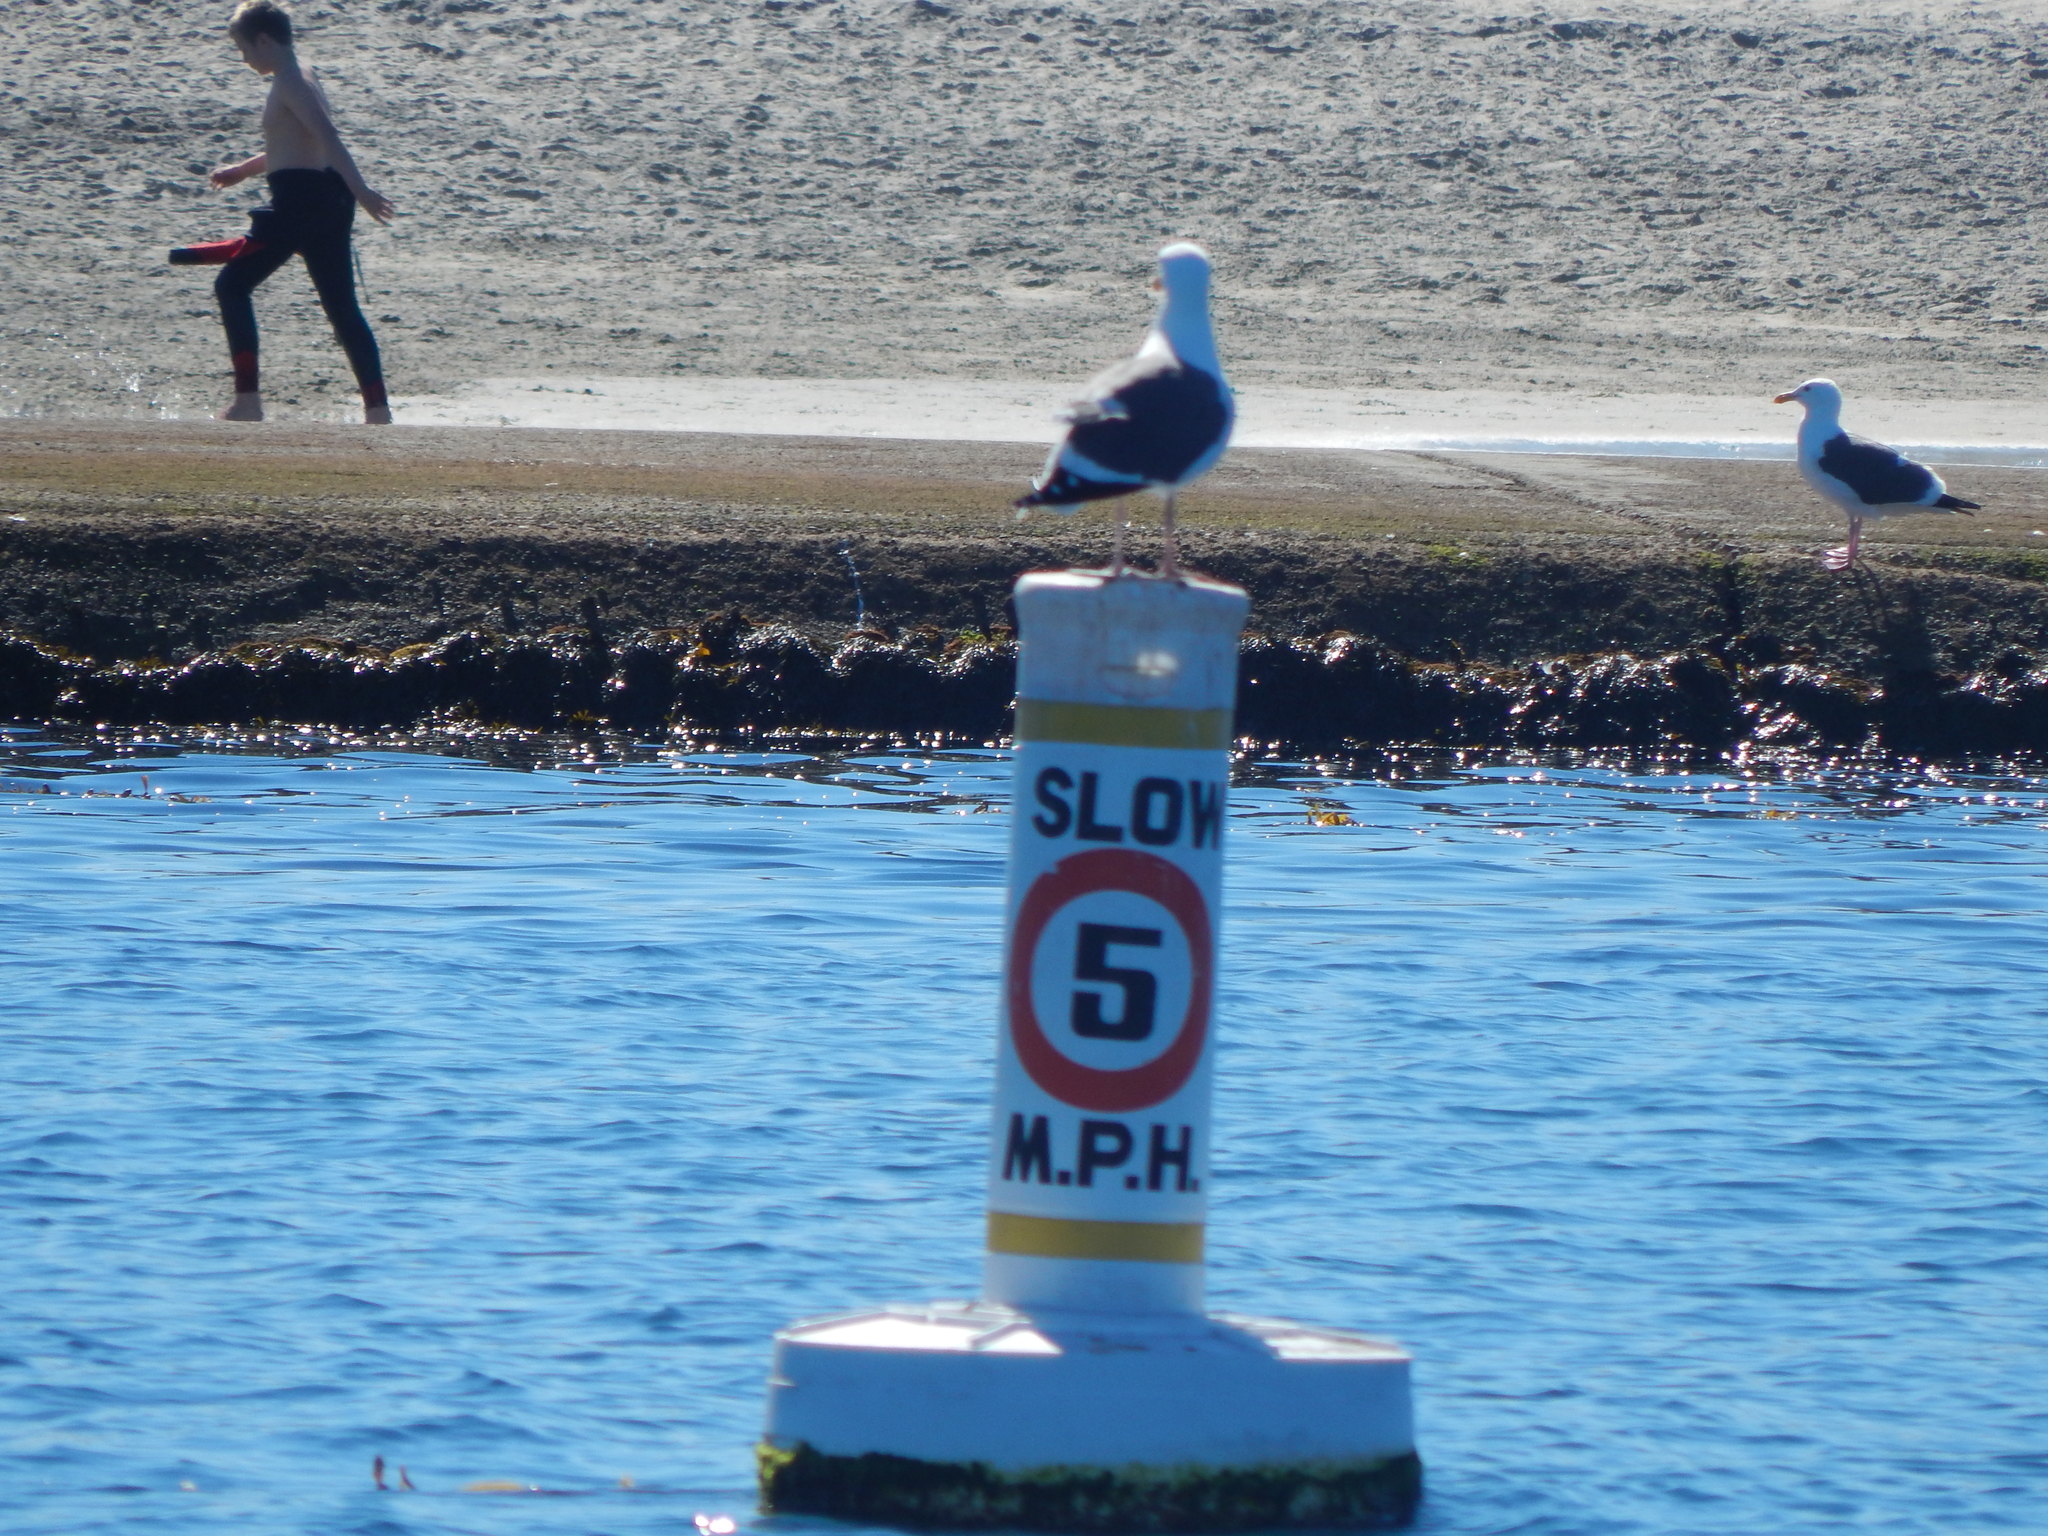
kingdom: Animalia
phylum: Chordata
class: Aves
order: Charadriiformes
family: Laridae
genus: Larus
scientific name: Larus occidentalis
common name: Western gull
